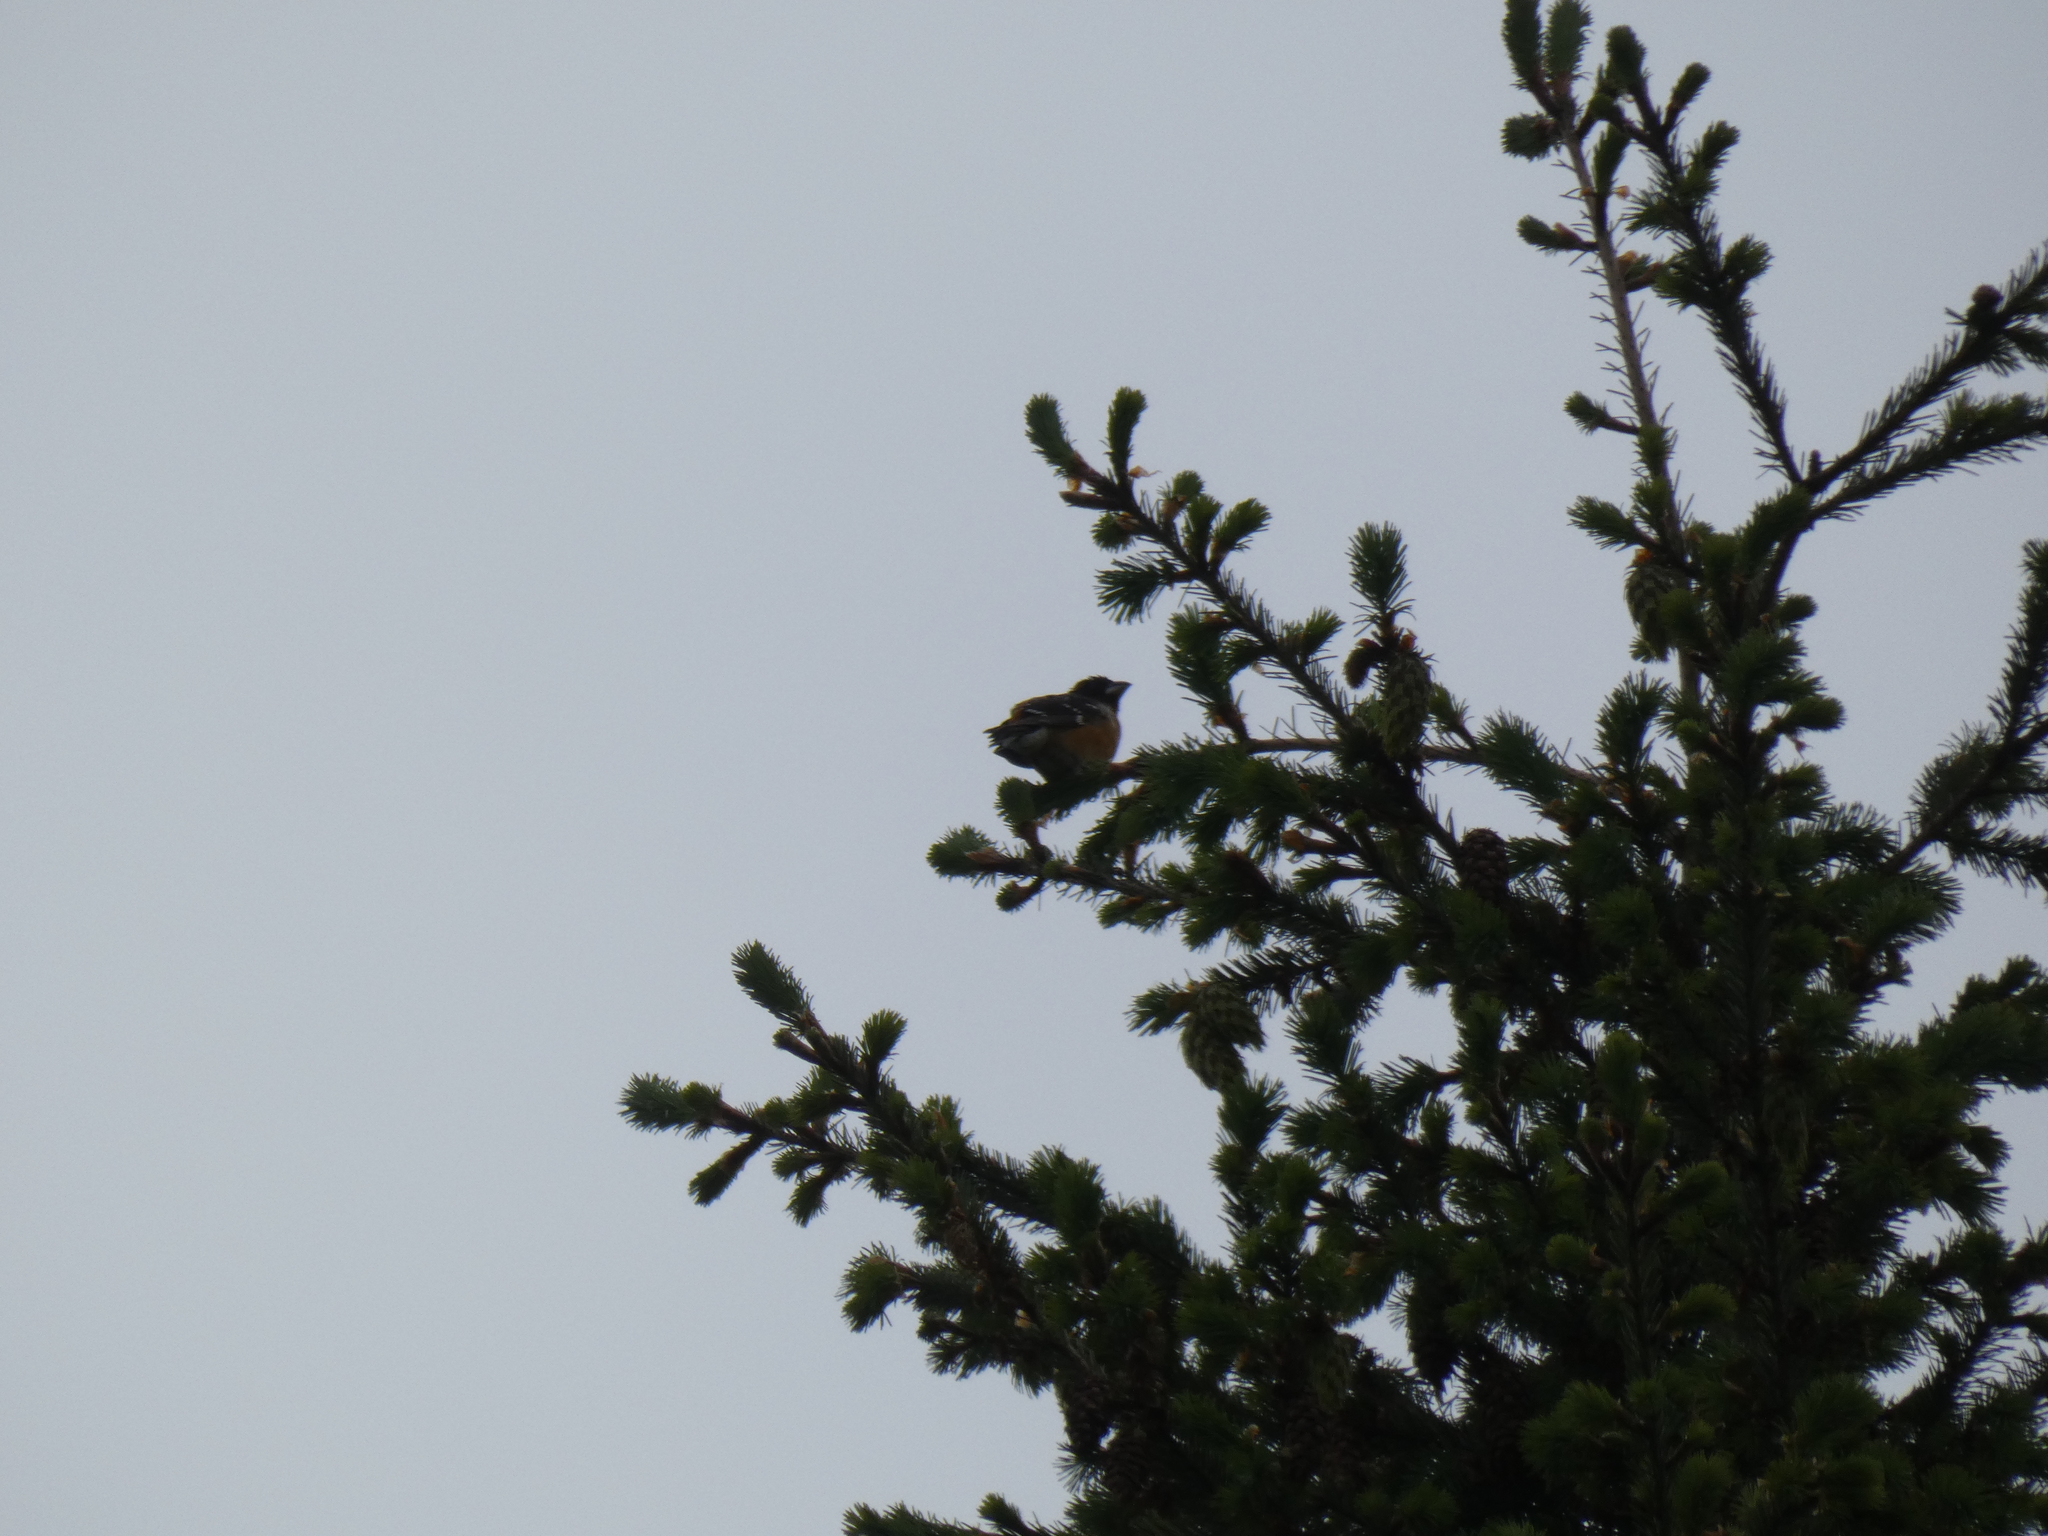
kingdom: Animalia
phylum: Chordata
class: Aves
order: Passeriformes
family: Passerellidae
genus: Pipilo
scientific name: Pipilo maculatus
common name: Spotted towhee
